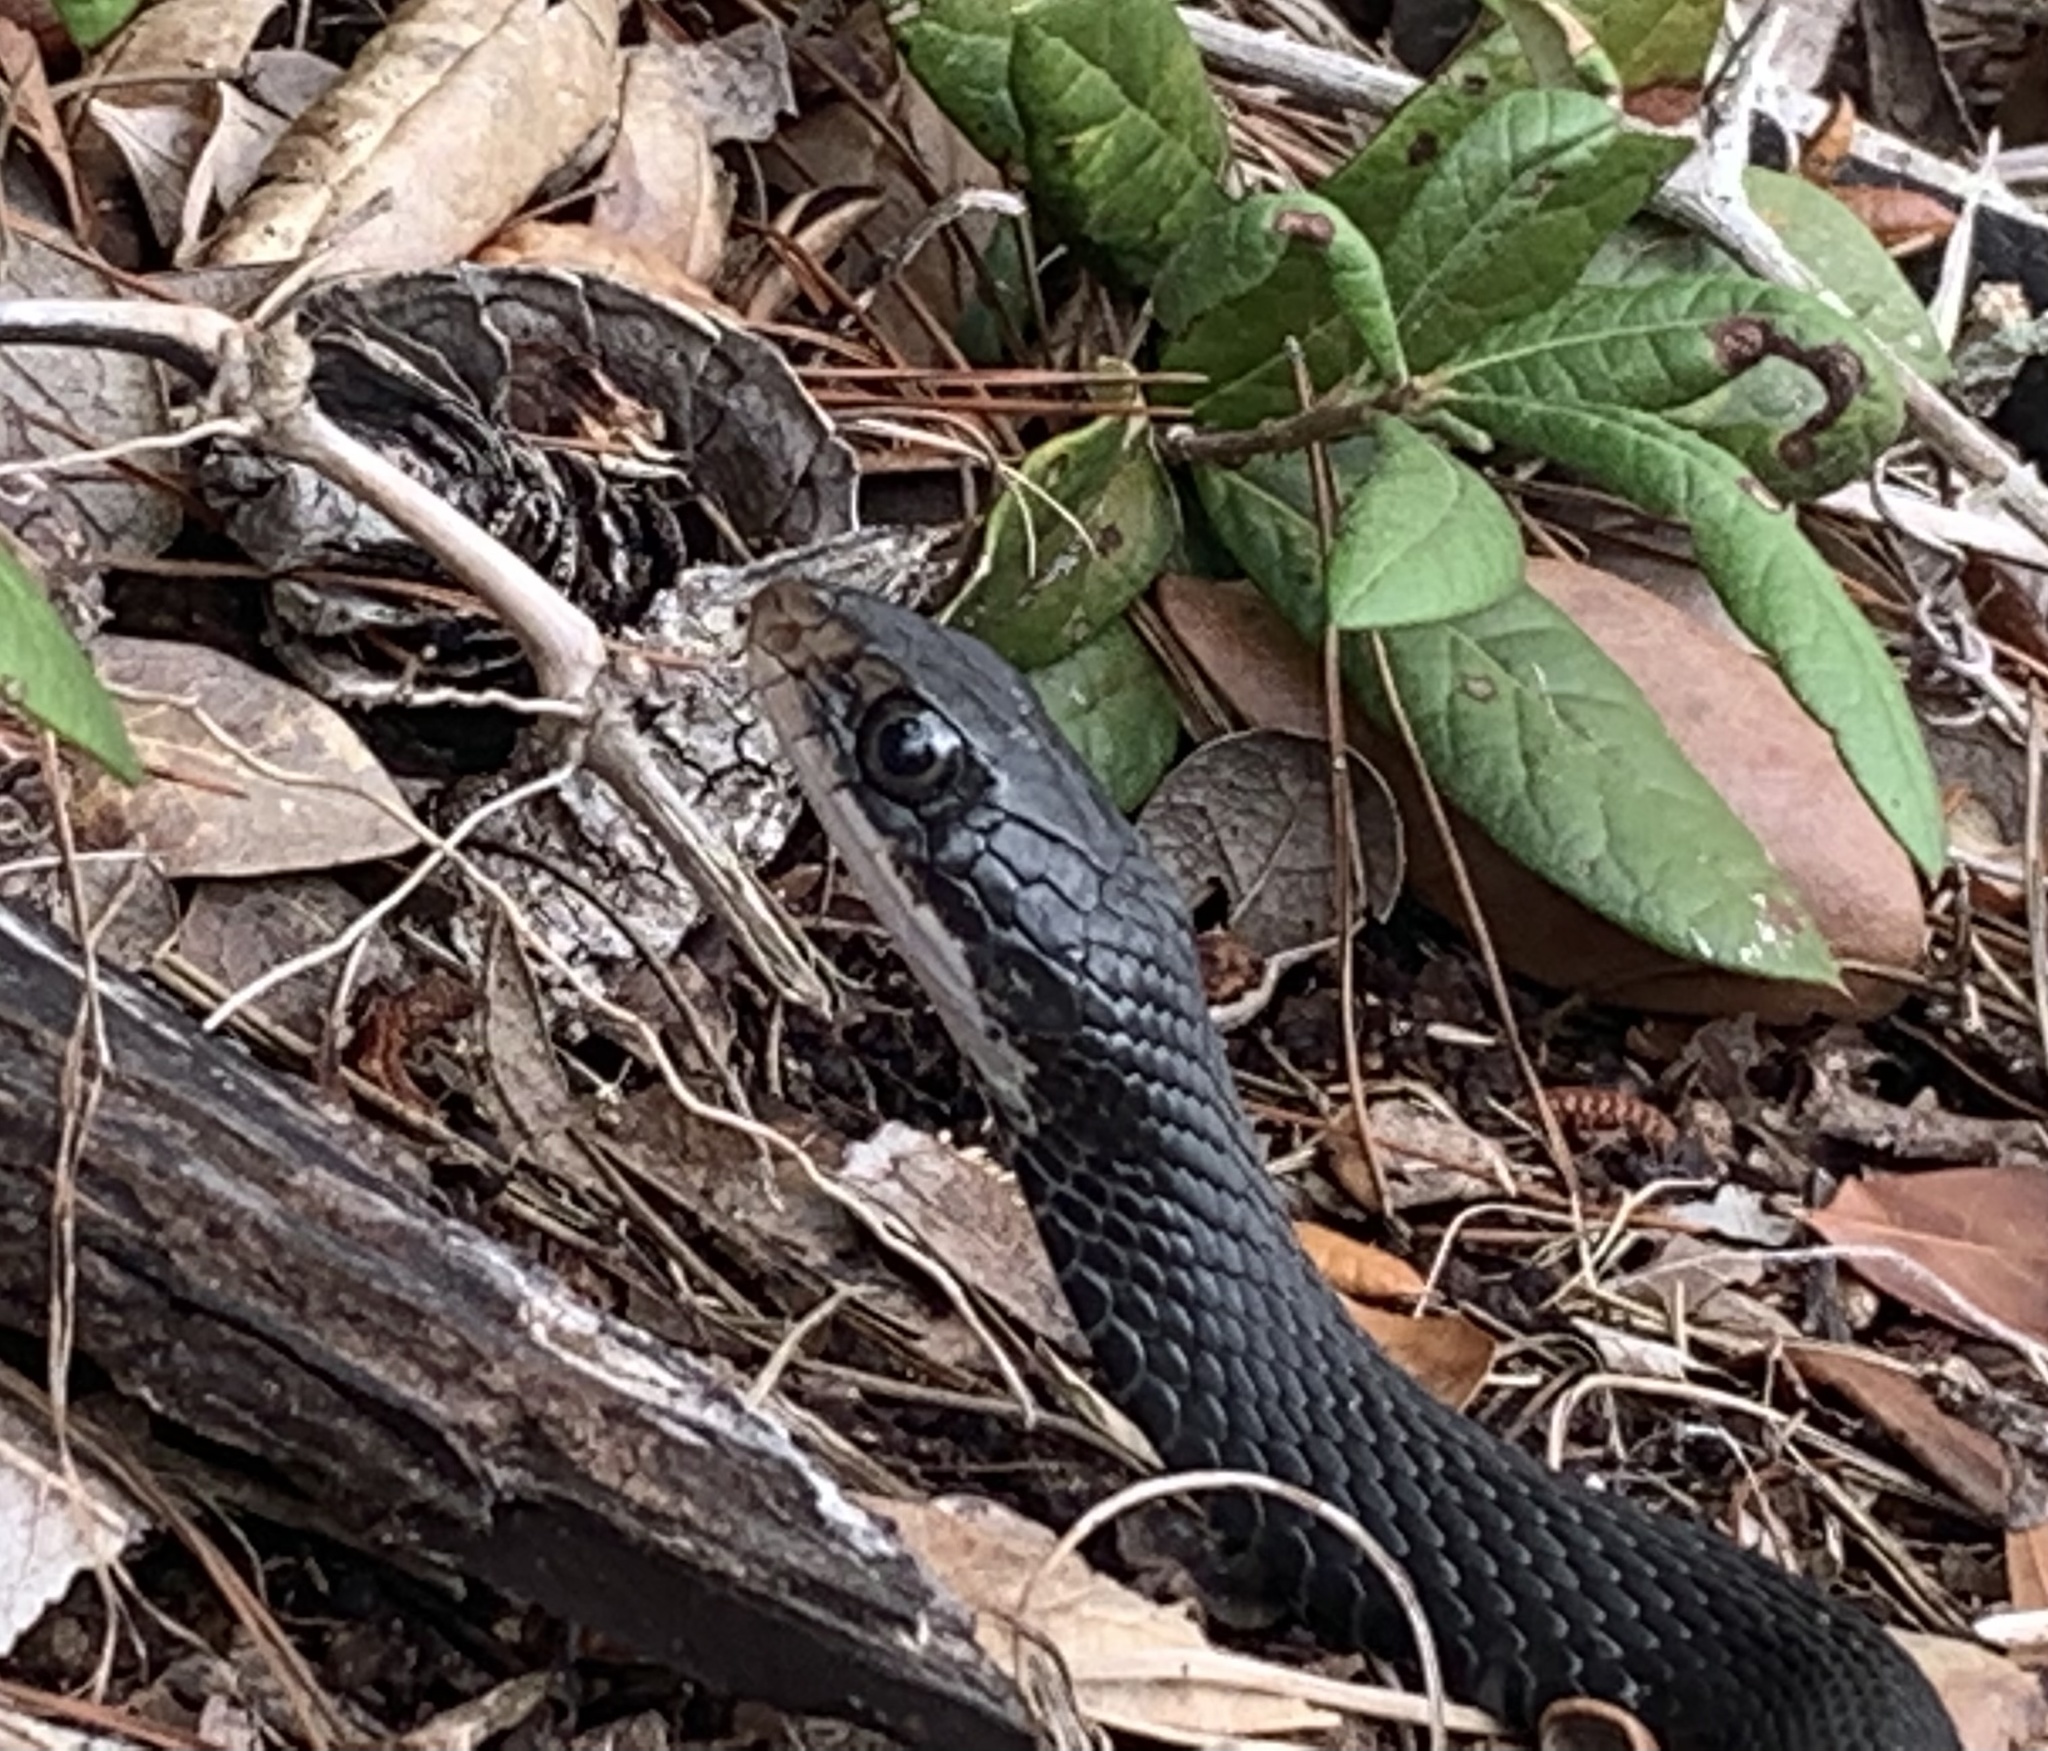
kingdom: Animalia
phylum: Chordata
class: Squamata
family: Colubridae
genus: Coluber
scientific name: Coluber constrictor
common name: Eastern racer
